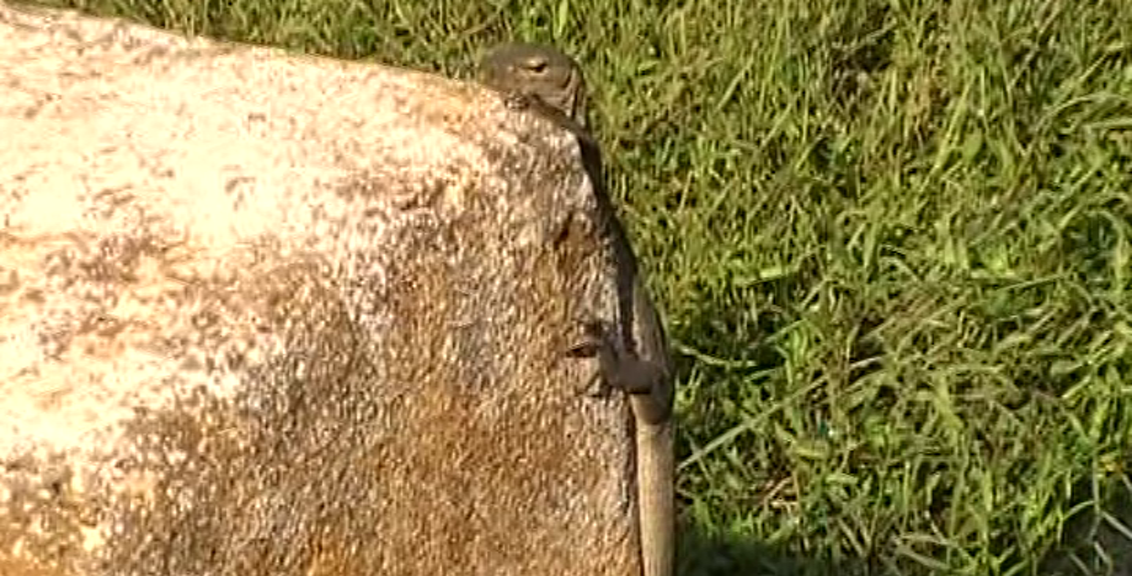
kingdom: Animalia
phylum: Chordata
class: Squamata
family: Varanidae
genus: Varanus
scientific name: Varanus bengalensis
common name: Bengal monitor
